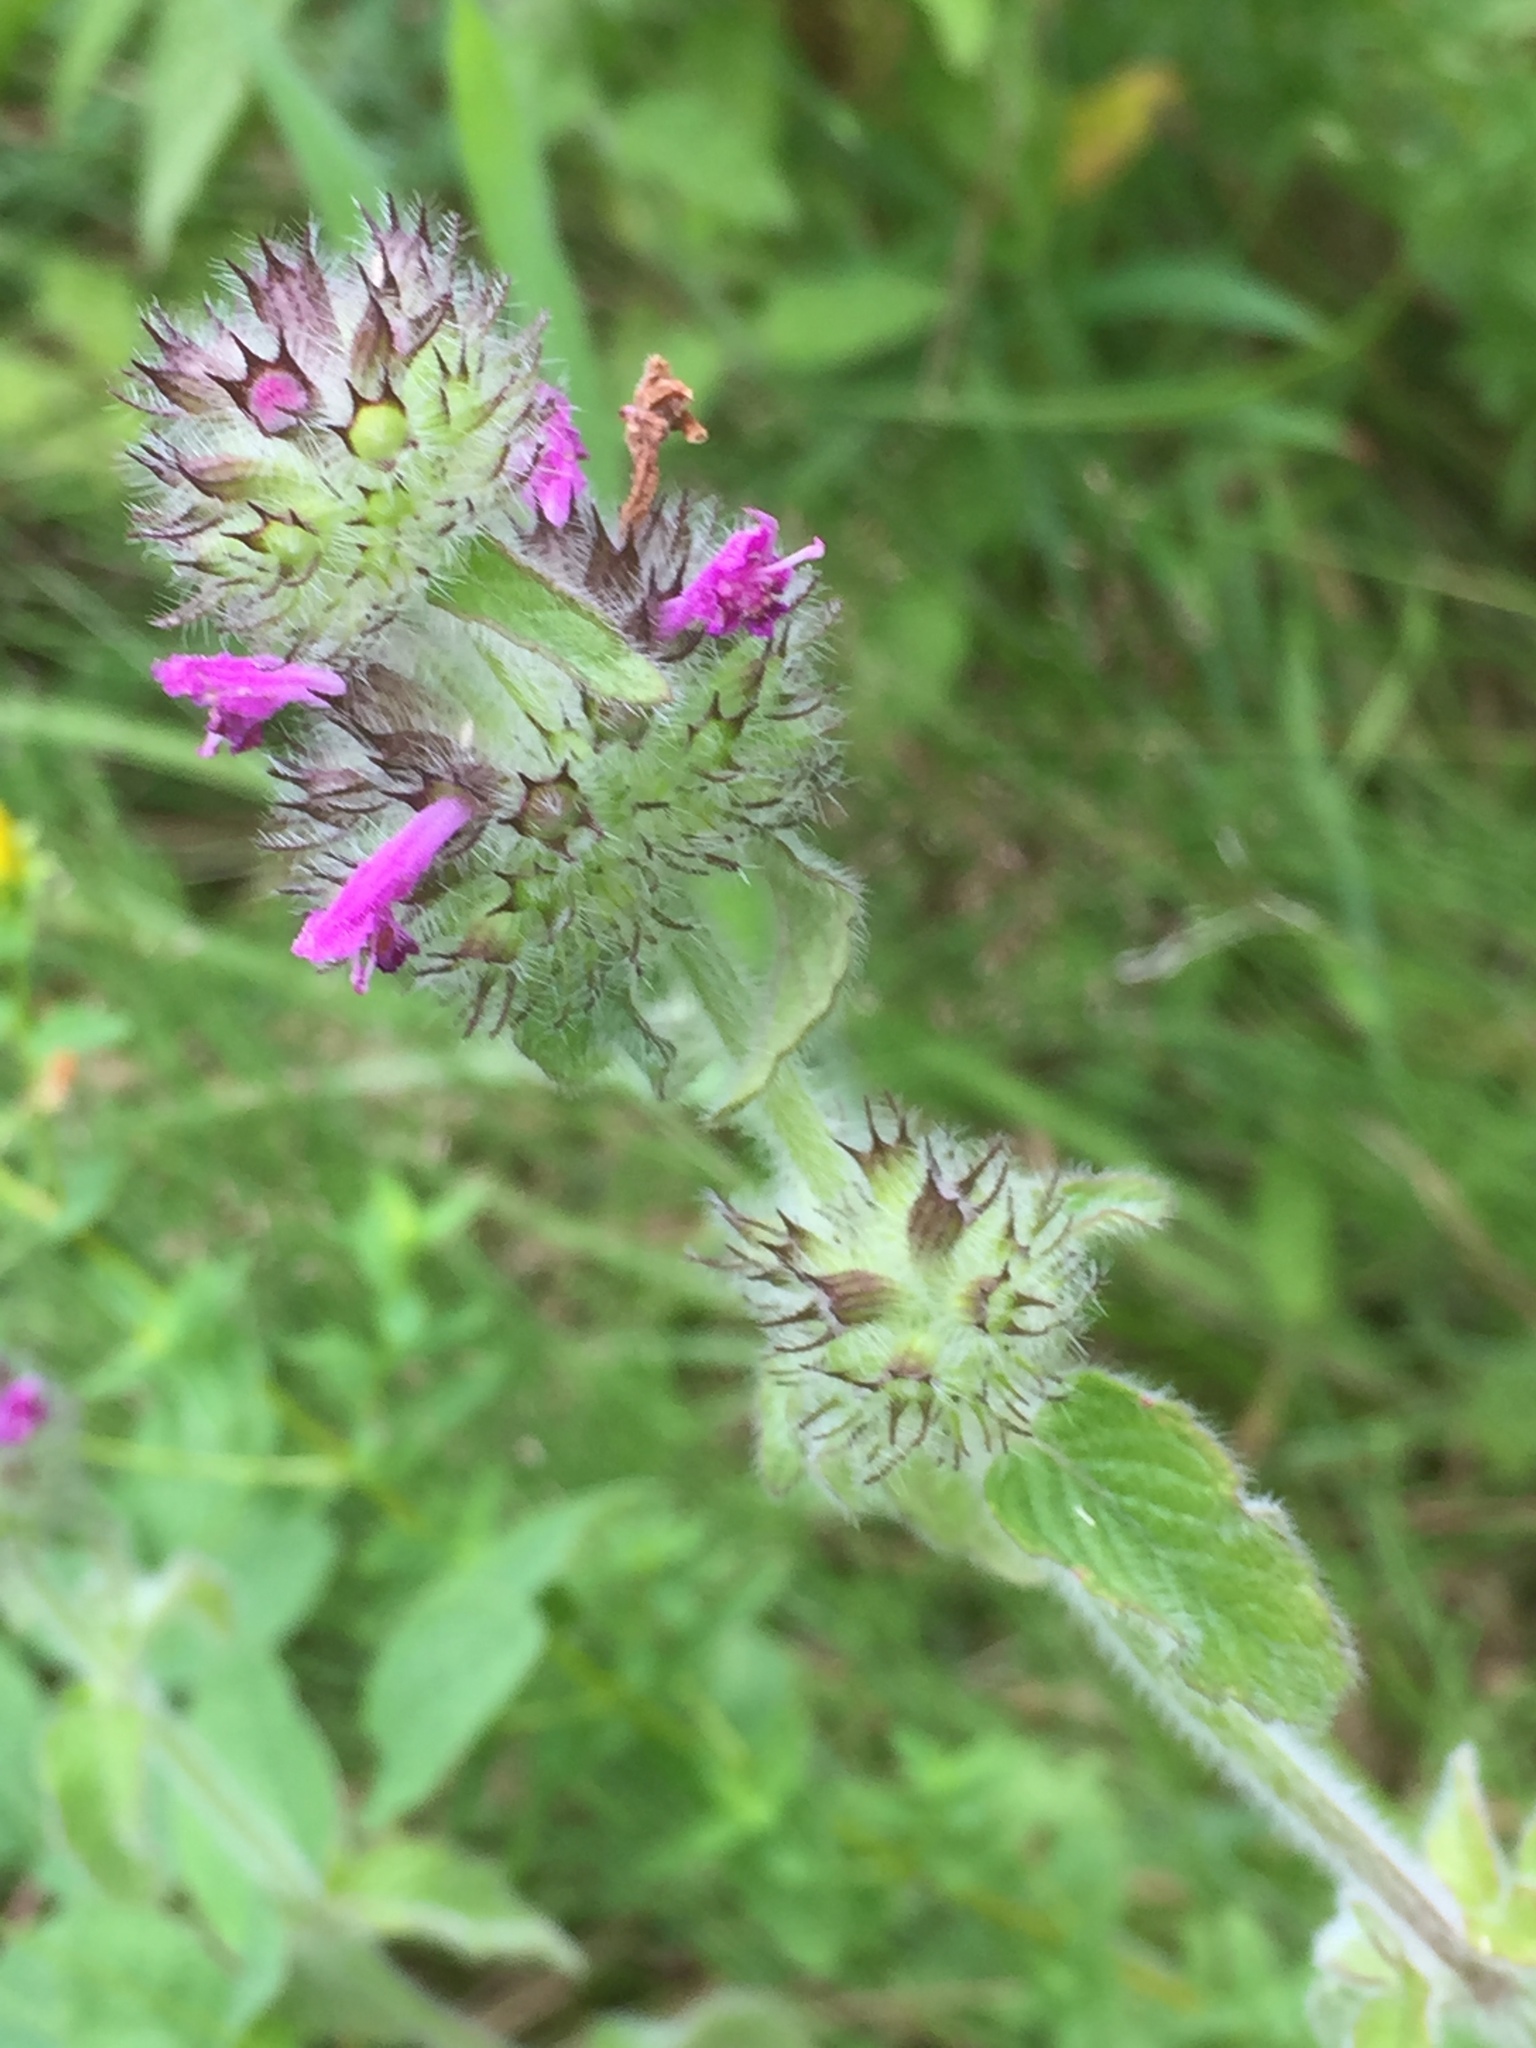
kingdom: Plantae
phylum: Tracheophyta
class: Magnoliopsida
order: Lamiales
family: Lamiaceae
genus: Clinopodium
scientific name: Clinopodium vulgare
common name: Wild basil
